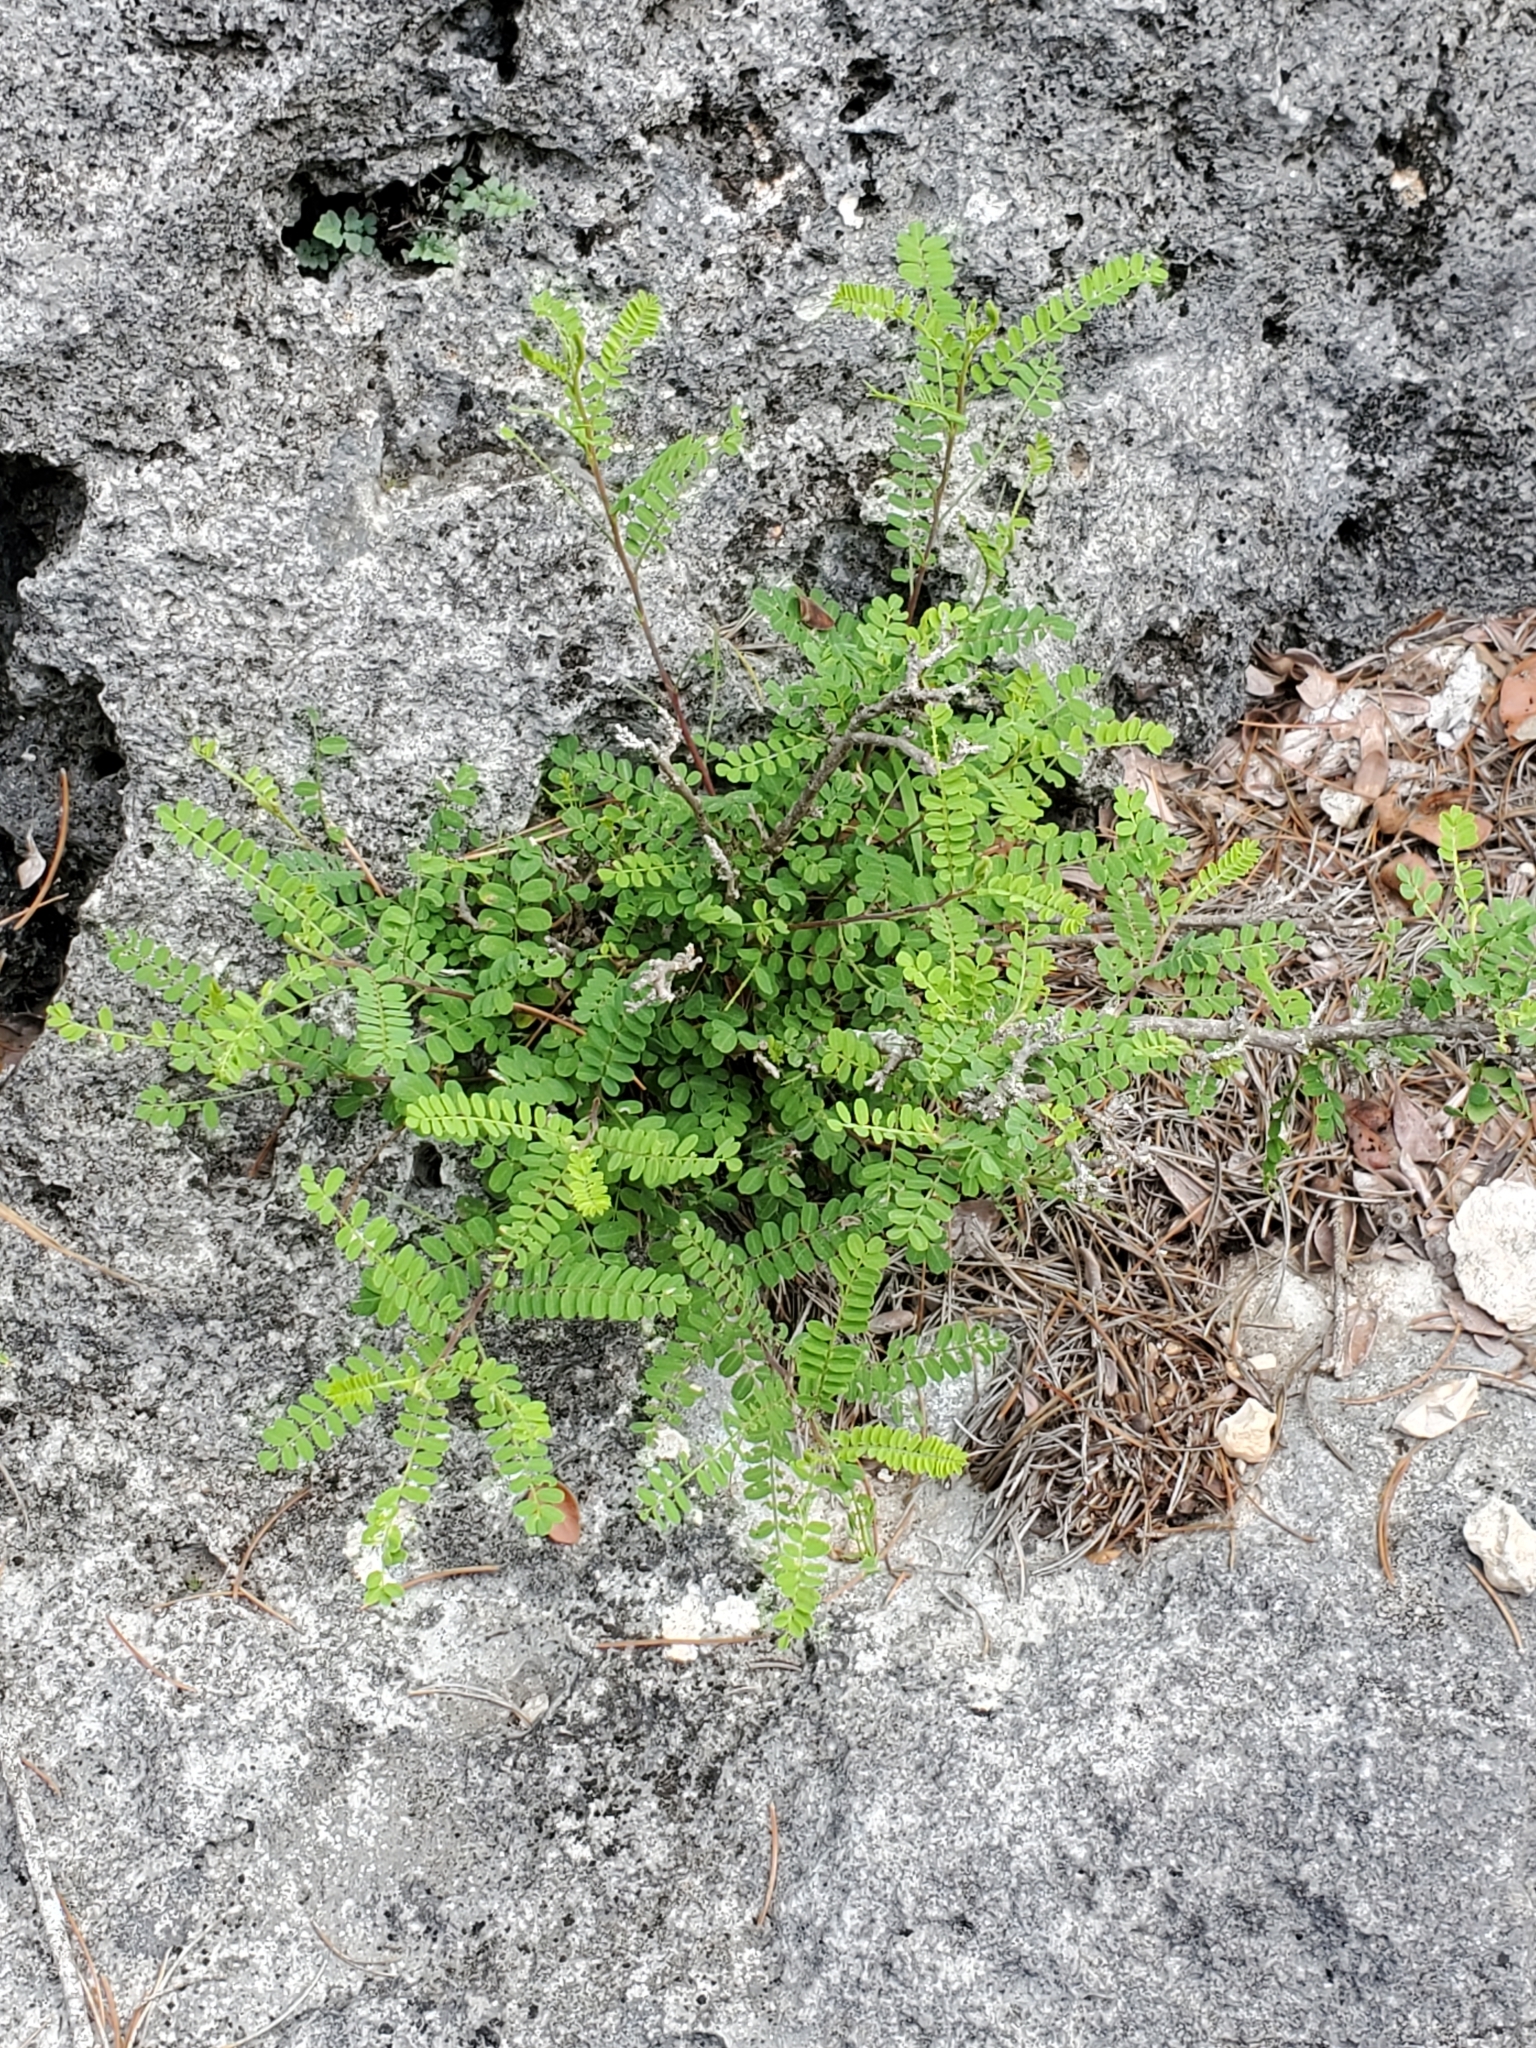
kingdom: Plantae
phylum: Tracheophyta
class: Magnoliopsida
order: Fabales
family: Fabaceae
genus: Eysenhardtia
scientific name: Eysenhardtia texana
